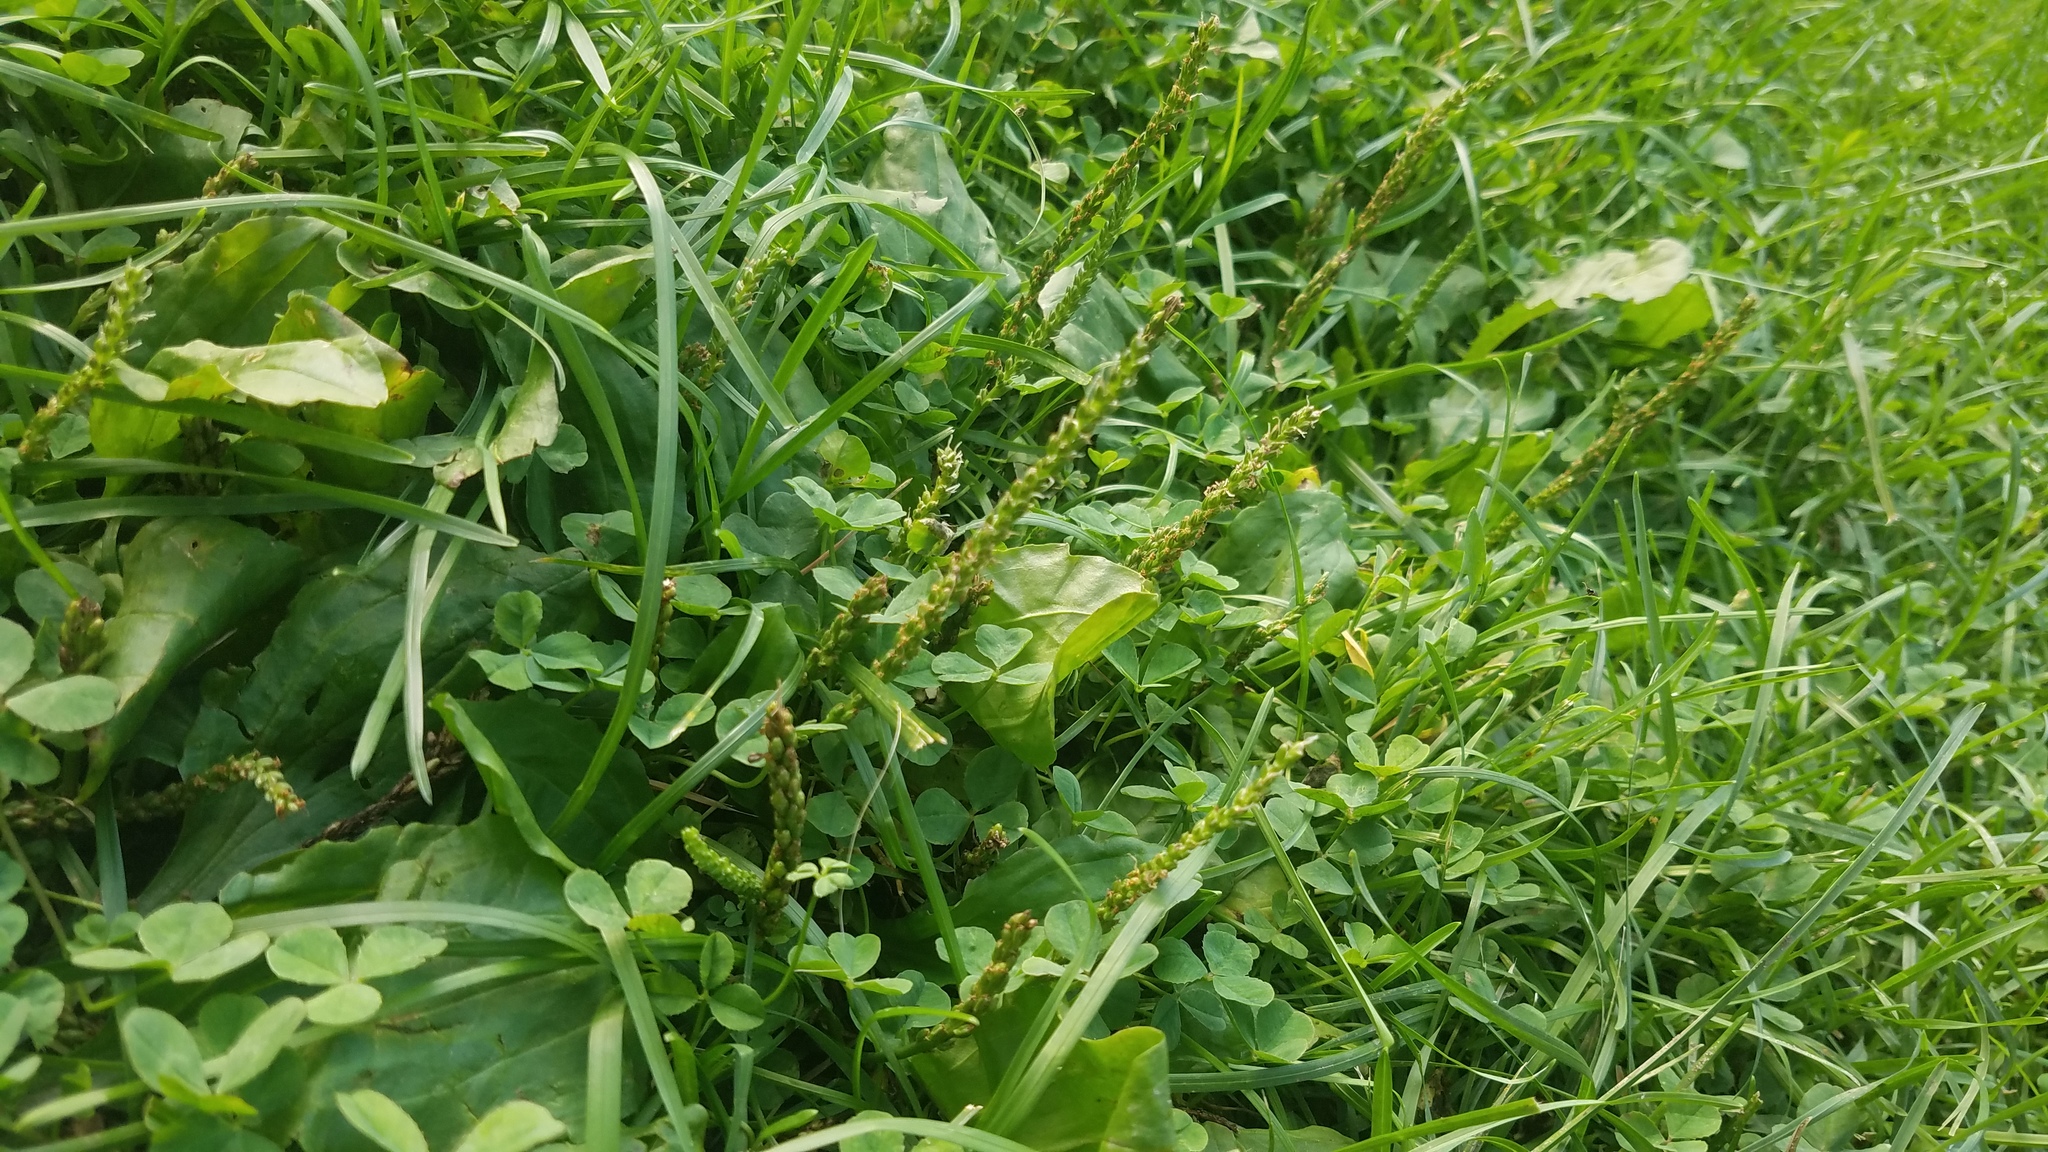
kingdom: Plantae
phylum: Tracheophyta
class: Magnoliopsida
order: Lamiales
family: Plantaginaceae
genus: Plantago
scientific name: Plantago major
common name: Common plantain
